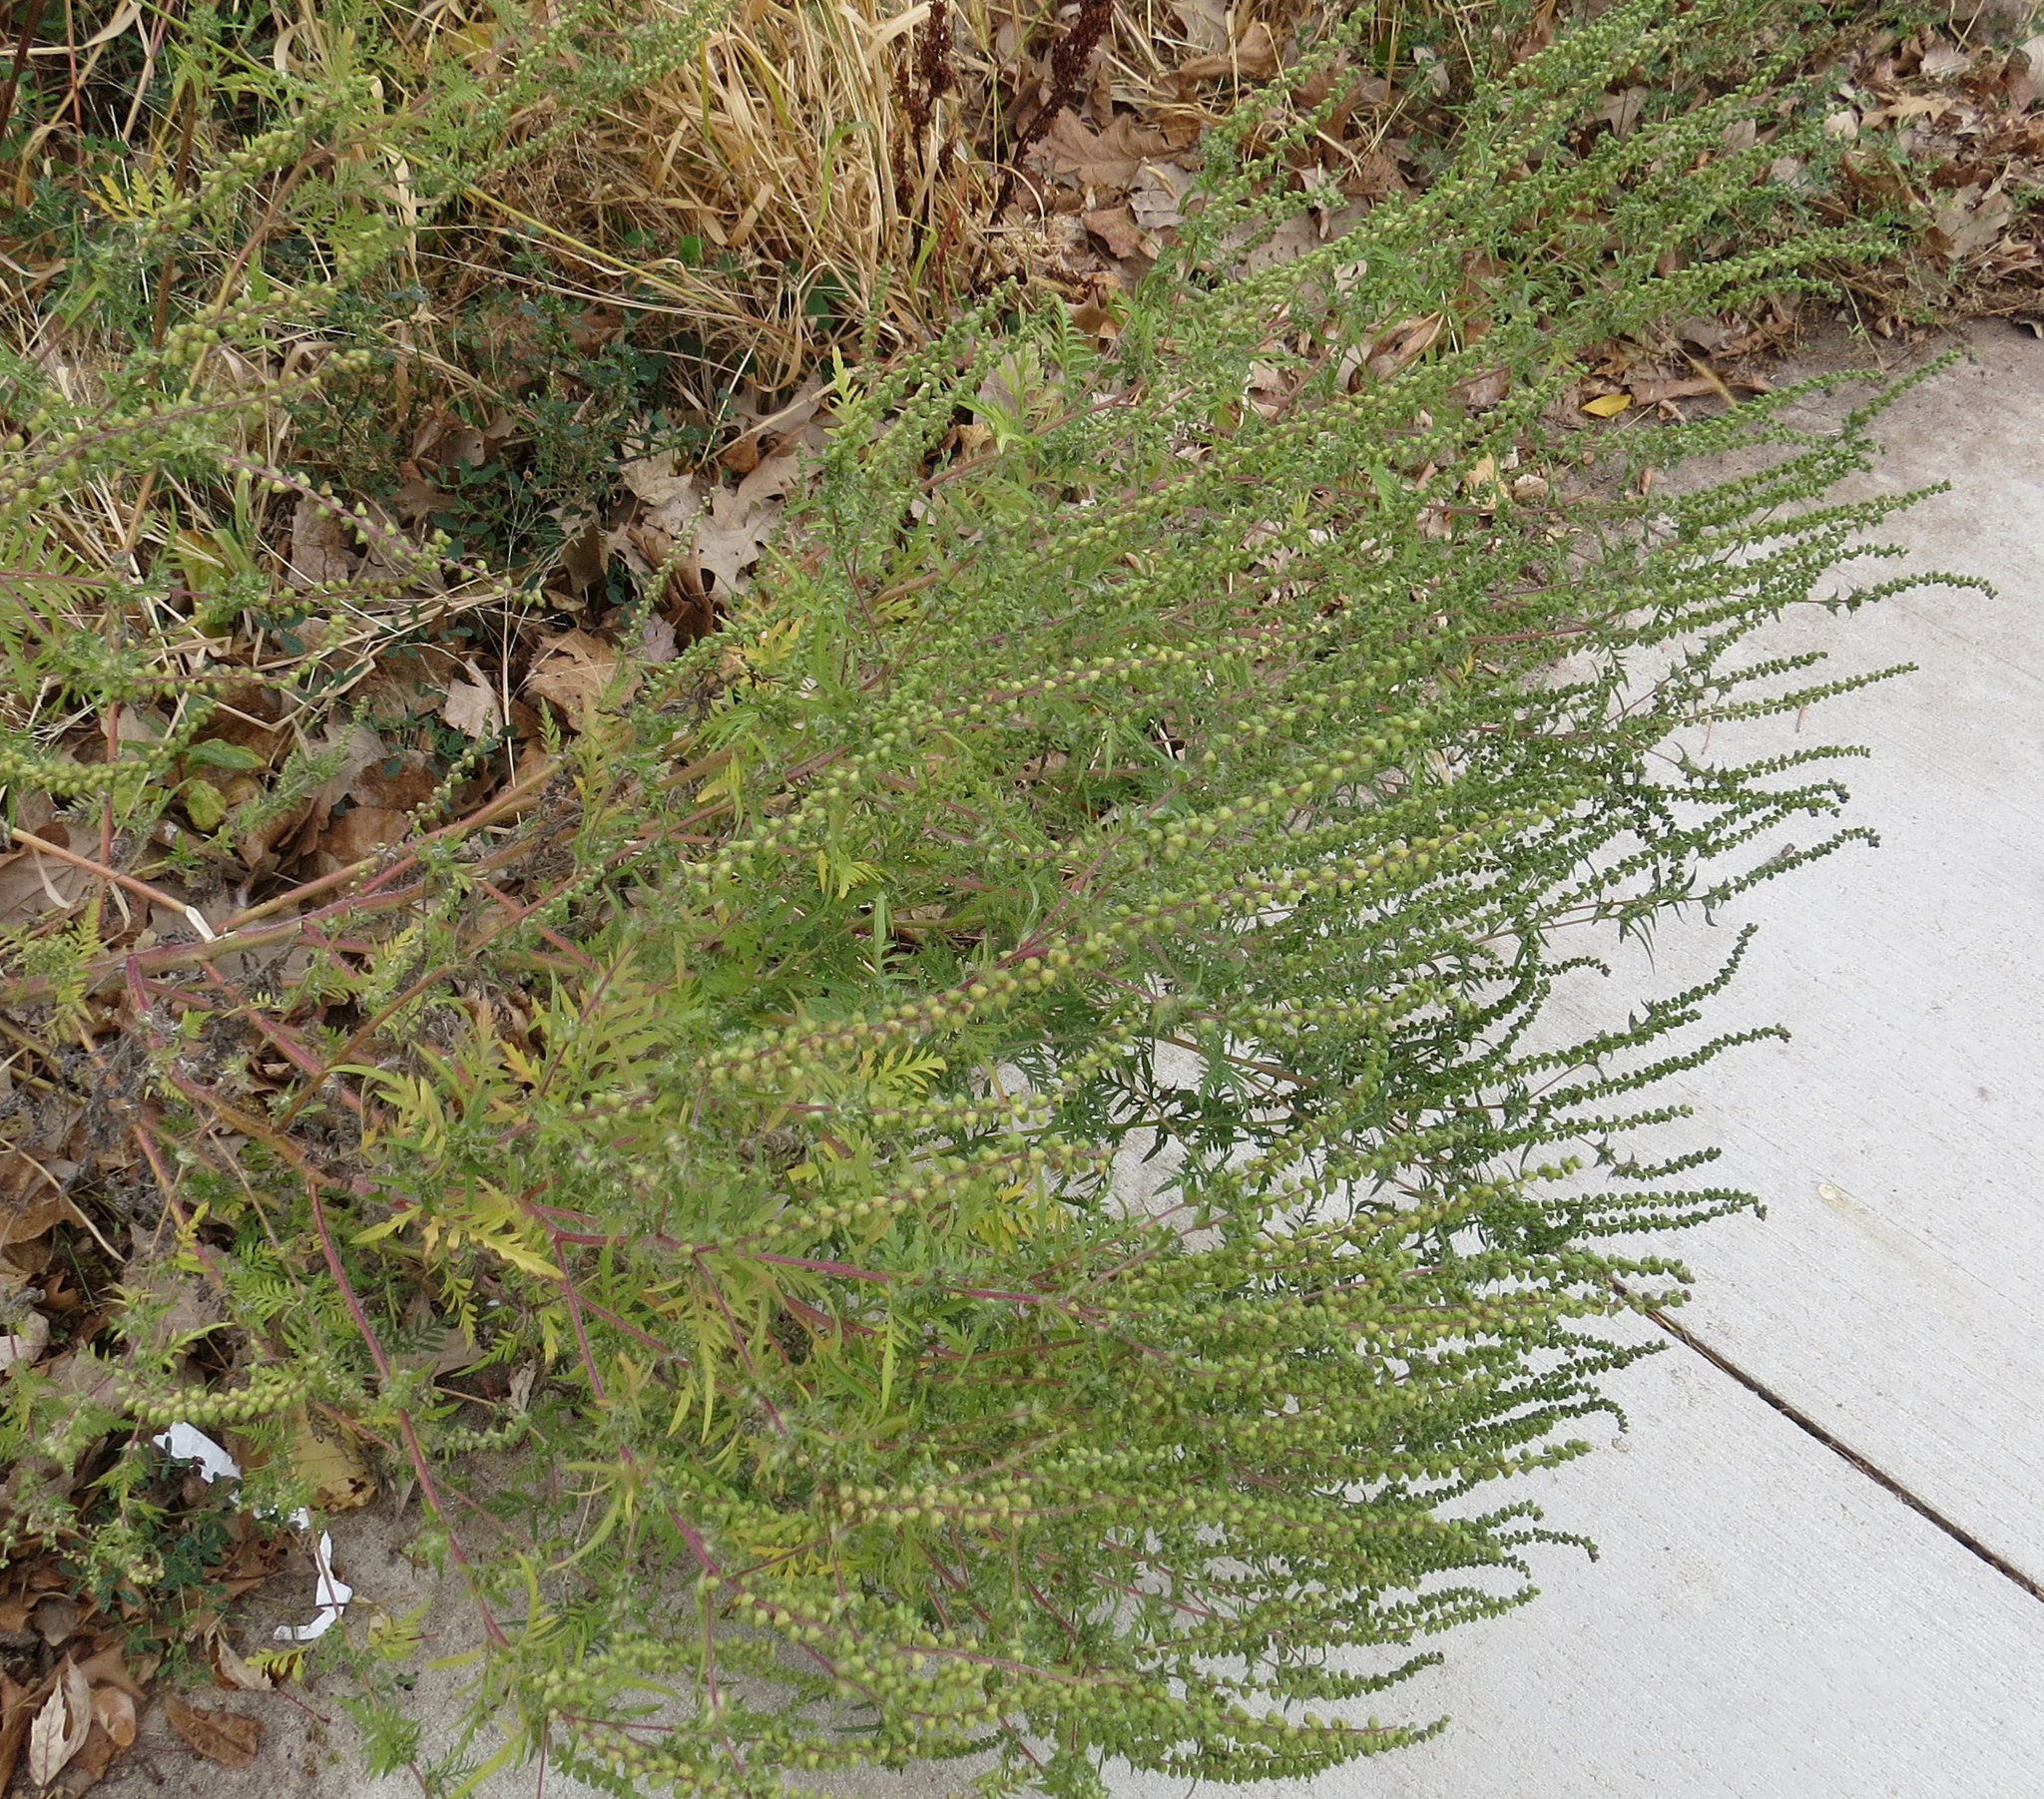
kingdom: Plantae
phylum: Tracheophyta
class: Magnoliopsida
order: Asterales
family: Asteraceae
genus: Ambrosia
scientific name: Ambrosia artemisiifolia
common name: Annual ragweed
